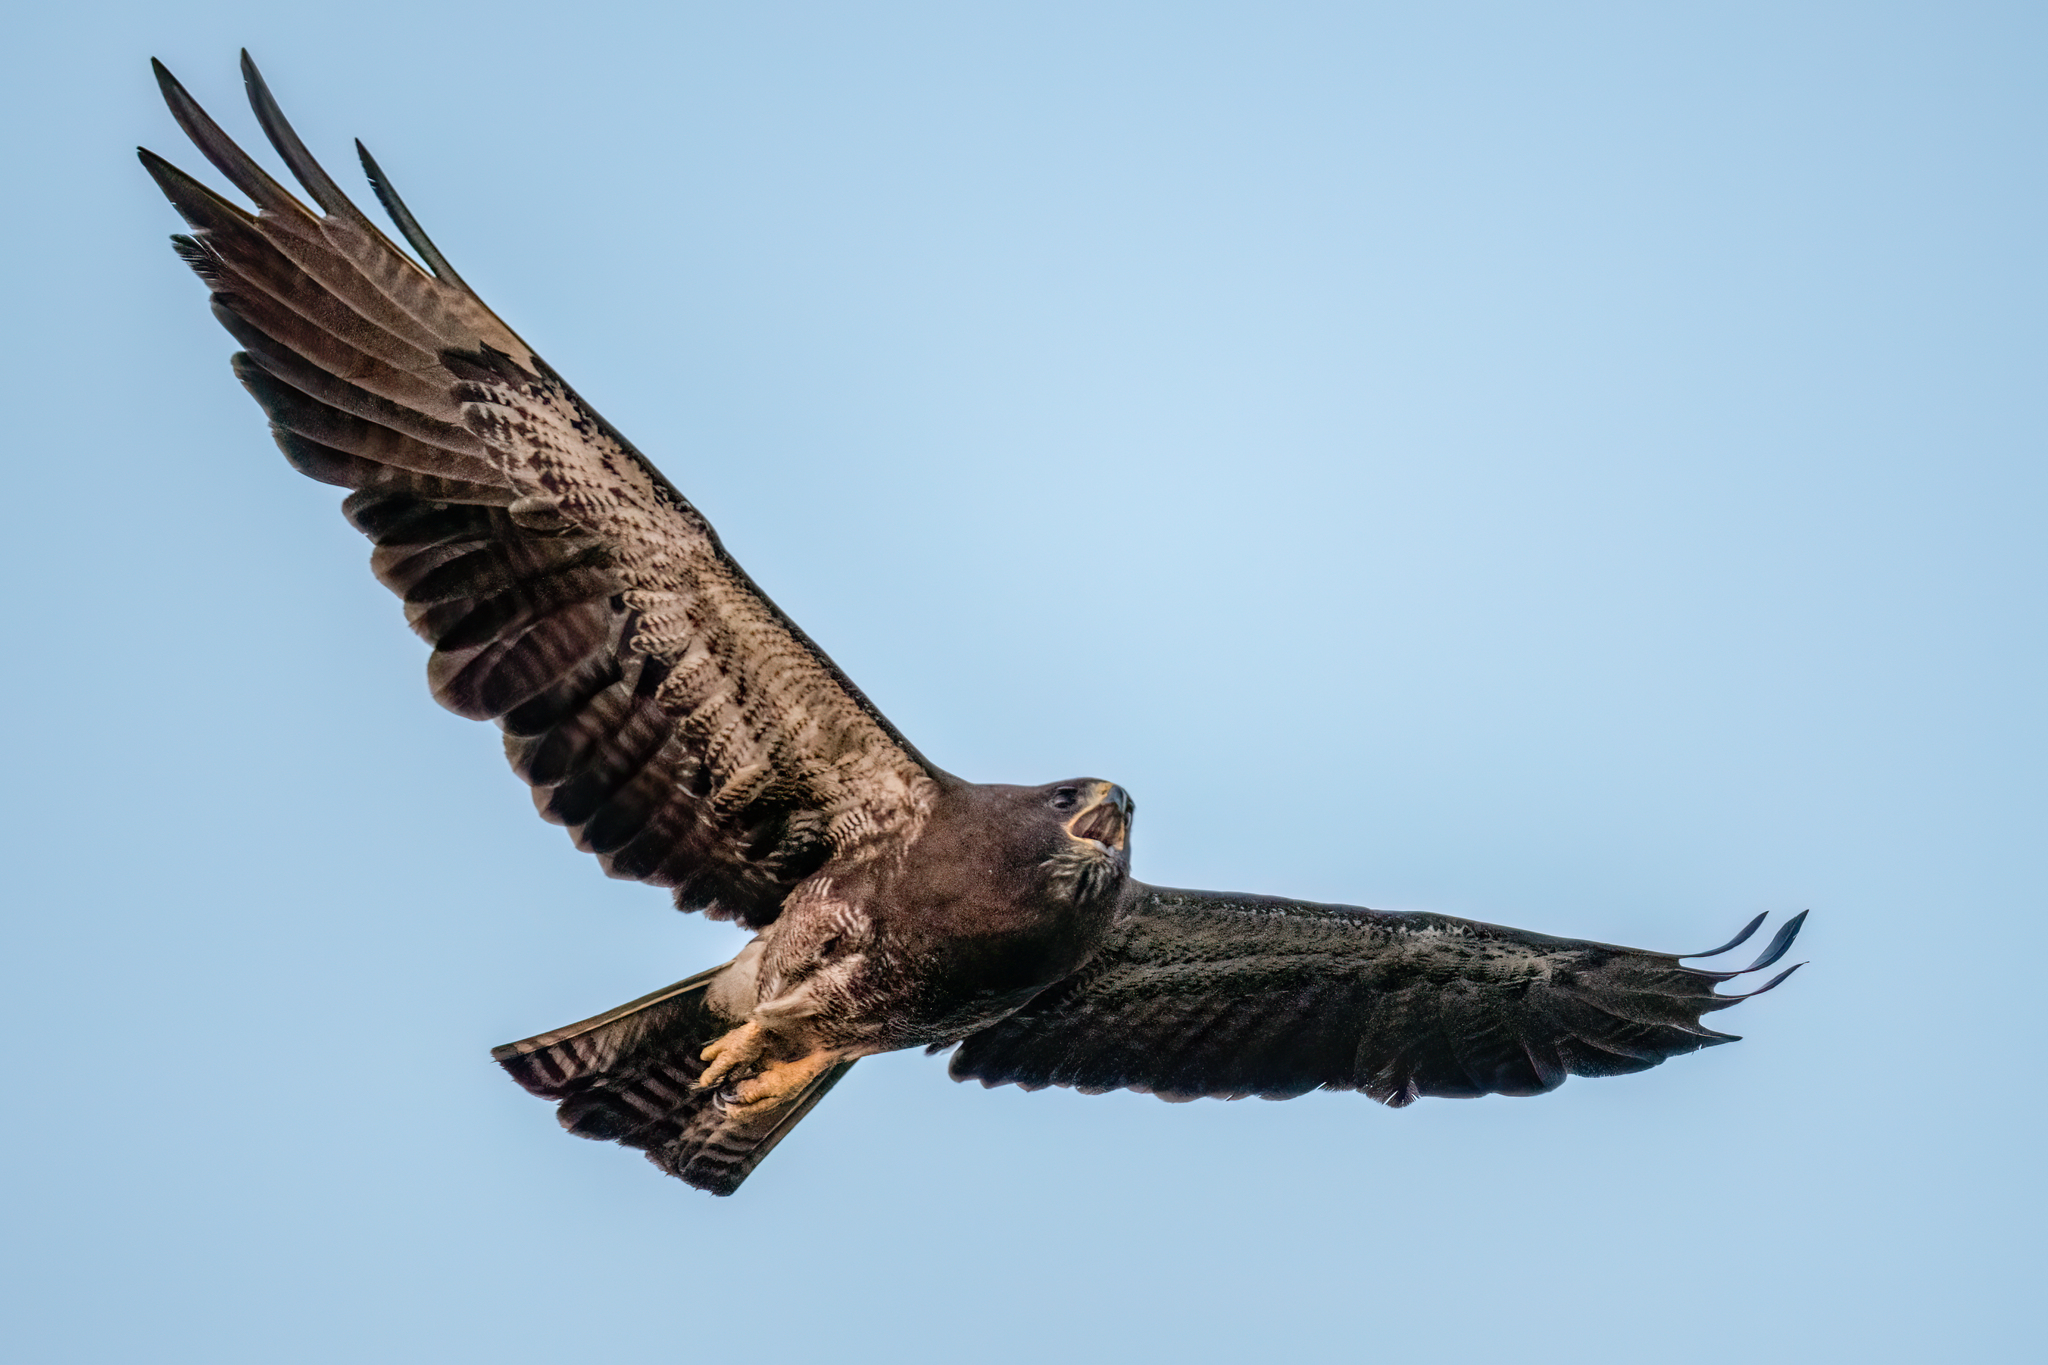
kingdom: Animalia
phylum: Chordata
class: Aves
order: Accipitriformes
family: Accipitridae
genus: Buteo
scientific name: Buteo swainsoni
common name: Swainson's hawk
